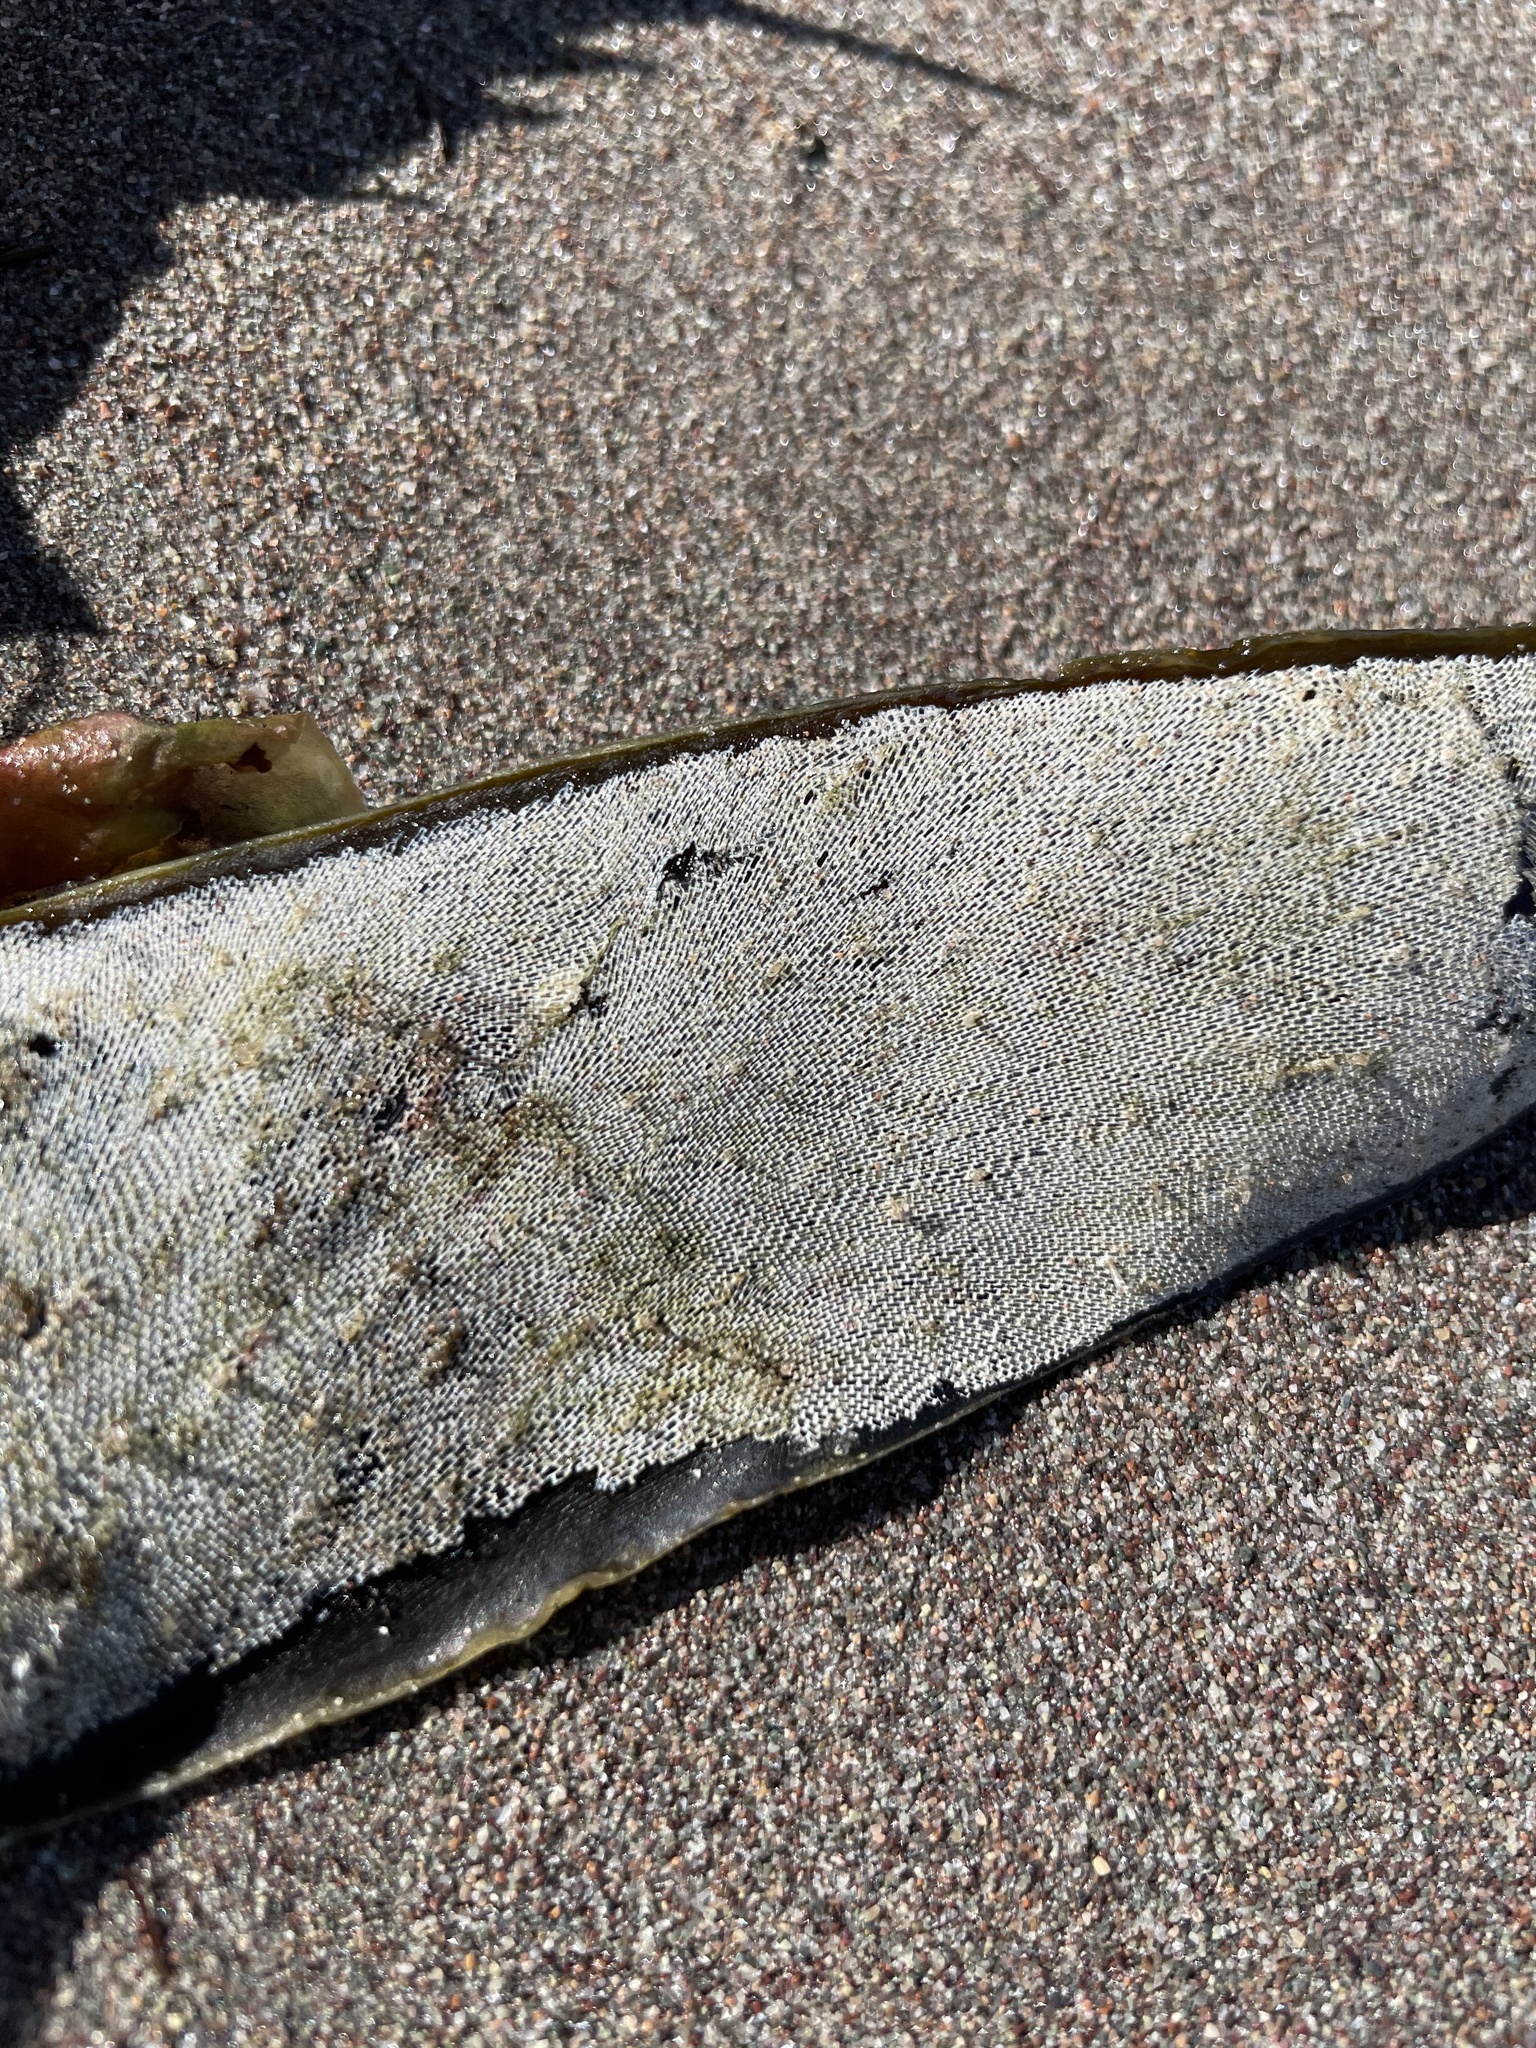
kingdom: Animalia
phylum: Bryozoa
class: Gymnolaemata
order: Cheilostomatida
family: Membraniporidae
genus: Membranipora
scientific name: Membranipora membranacea
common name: Sea mat
